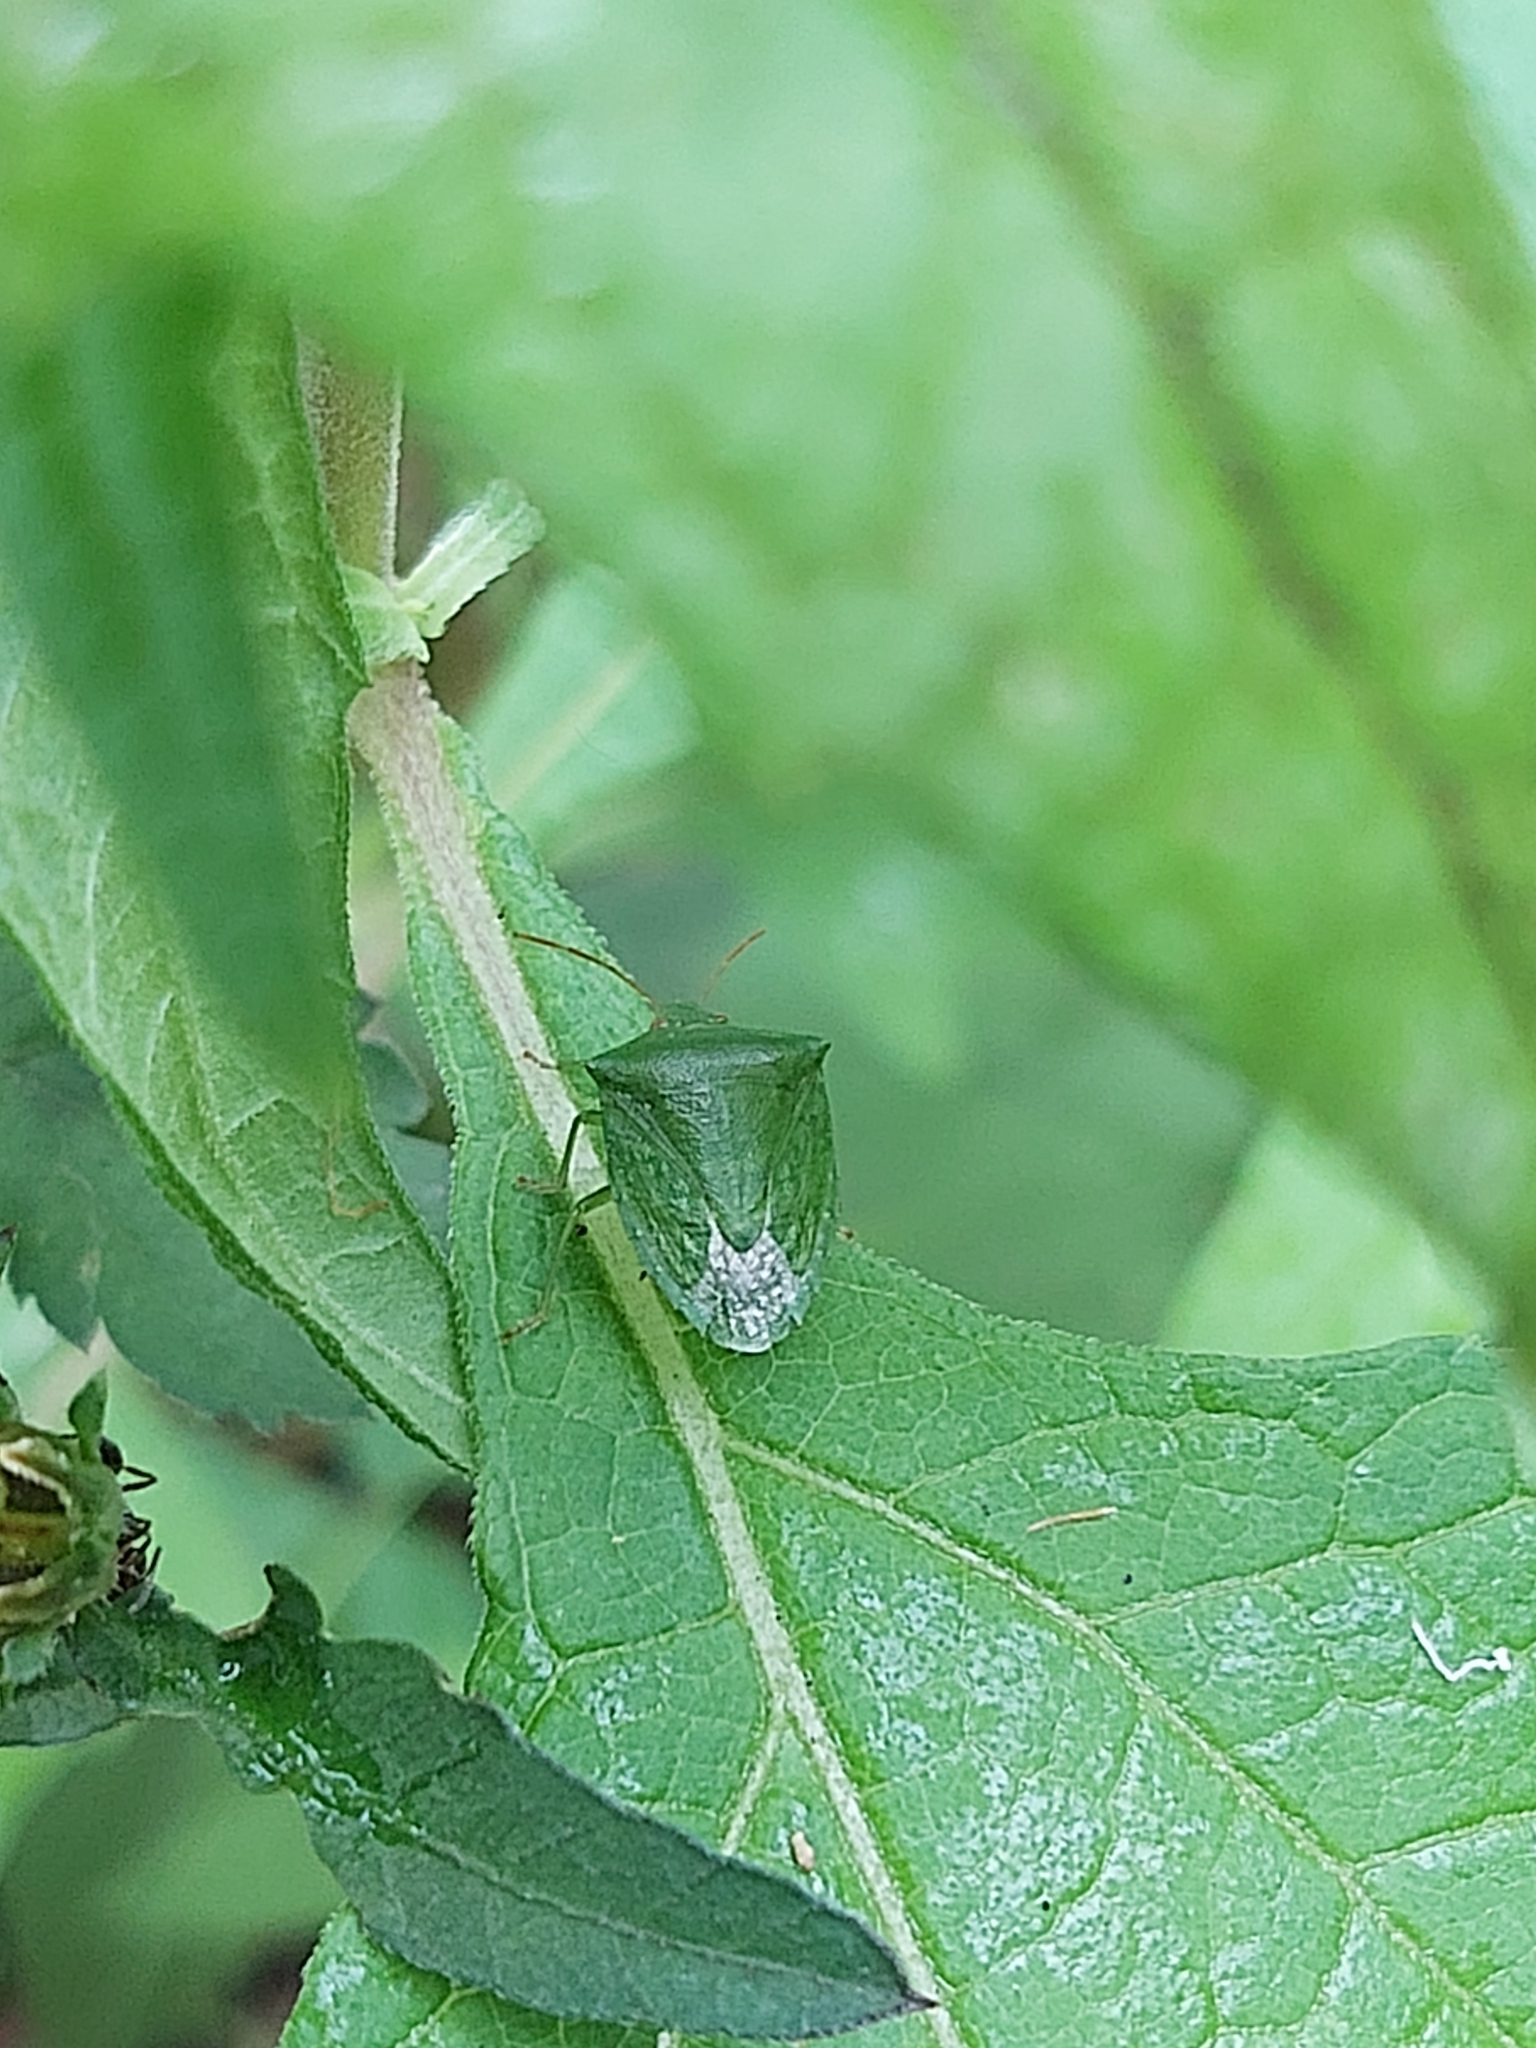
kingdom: Animalia
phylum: Arthropoda
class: Insecta
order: Hemiptera
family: Pentatomidae
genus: Cuspicona
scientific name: Cuspicona simplex
